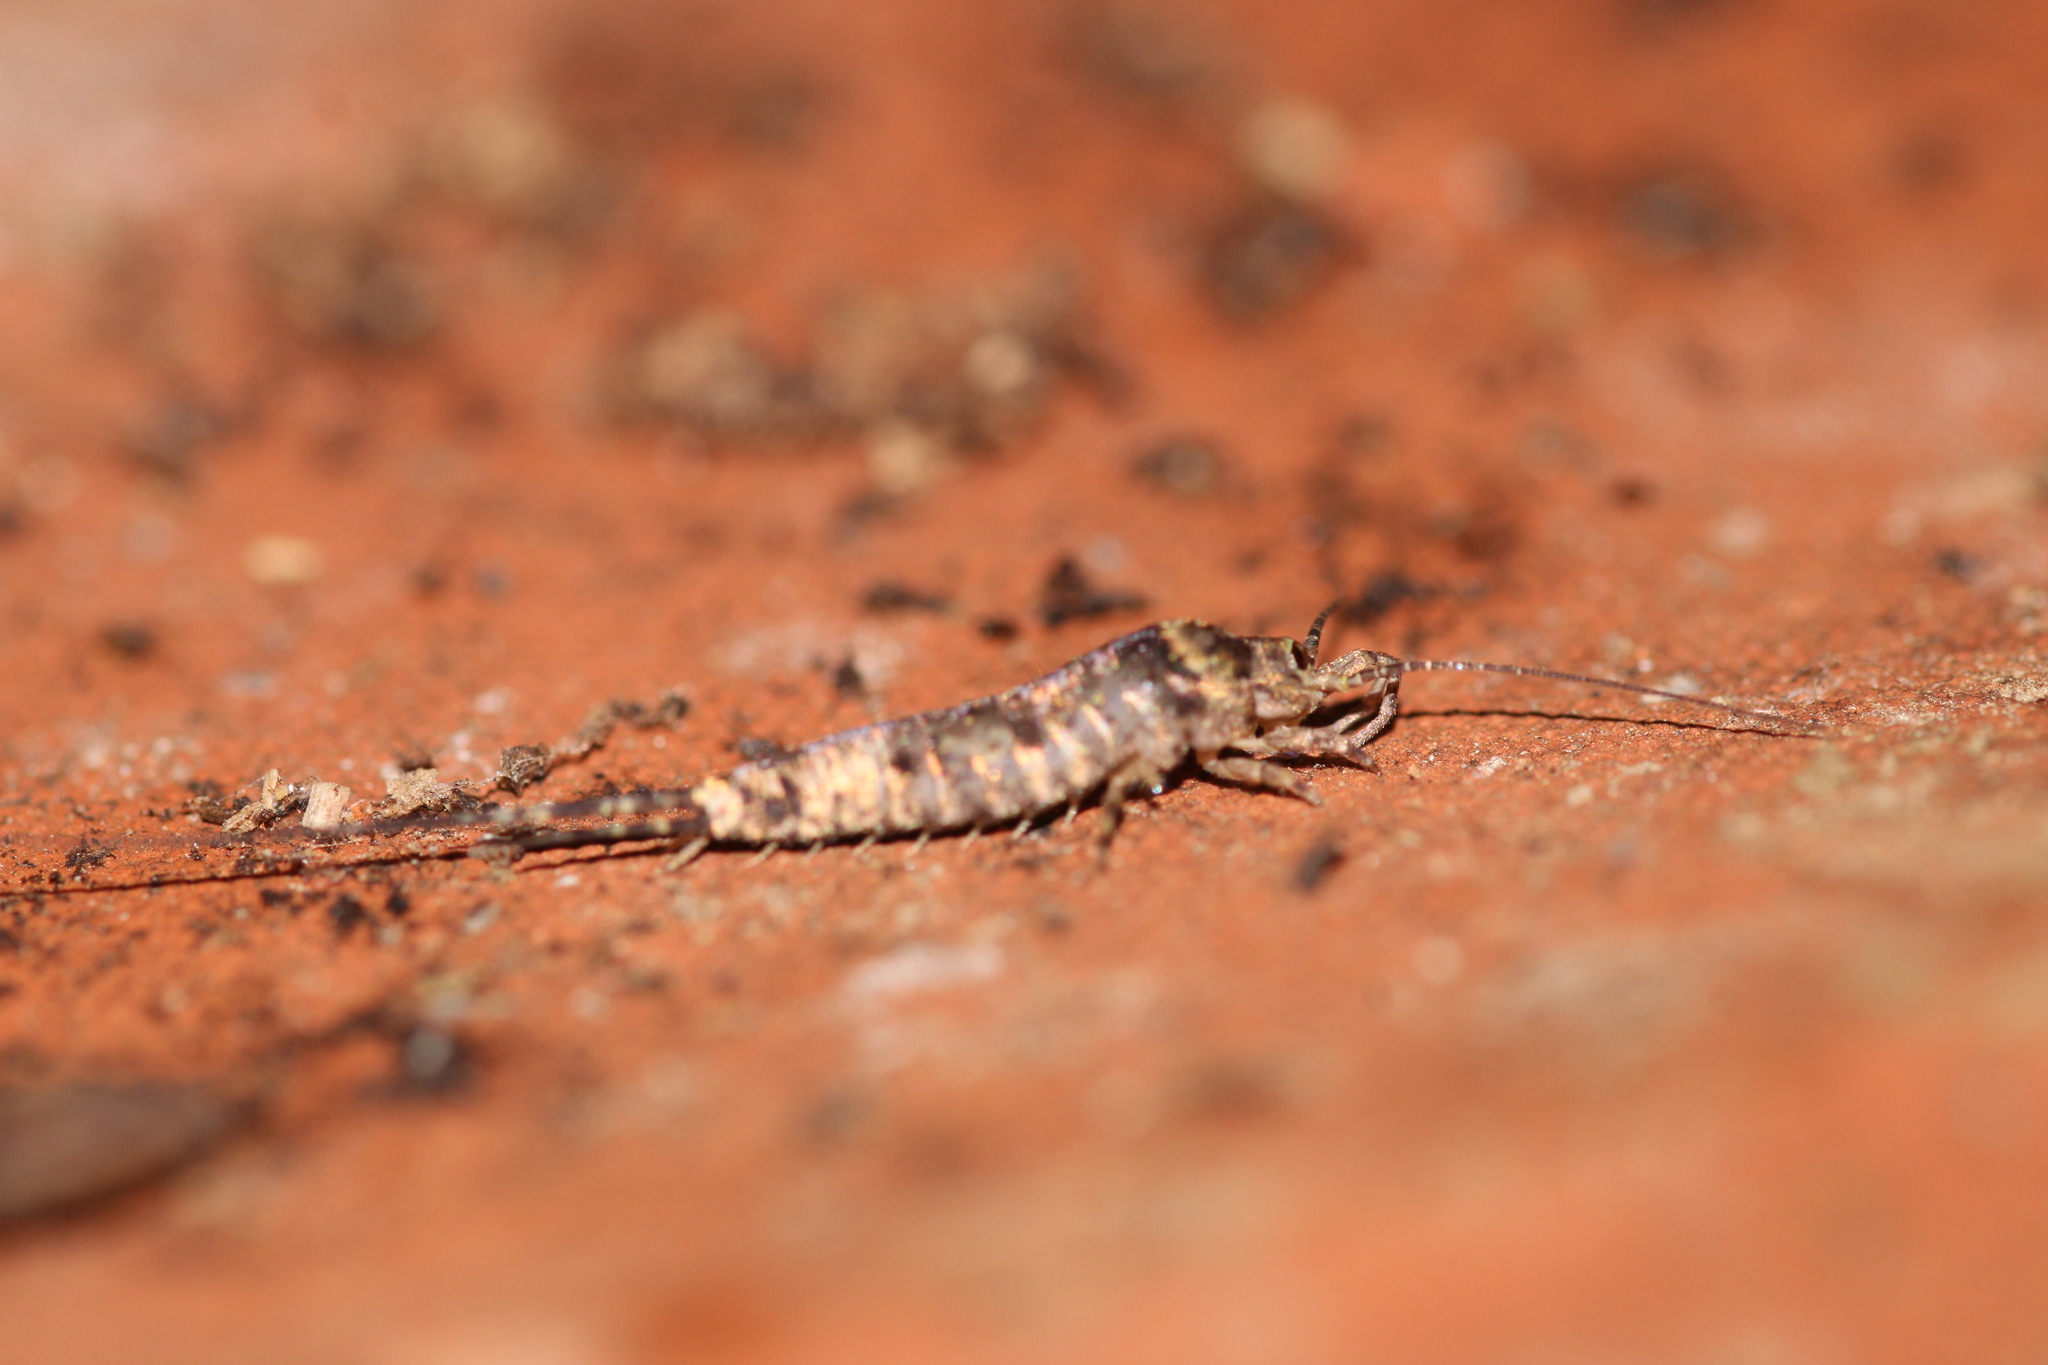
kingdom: Animalia
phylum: Arthropoda
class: Insecta
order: Archaeognatha
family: Machilidae
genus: Trigoniophthalmus
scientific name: Trigoniophthalmus alternatus
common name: Jumping bristletail
